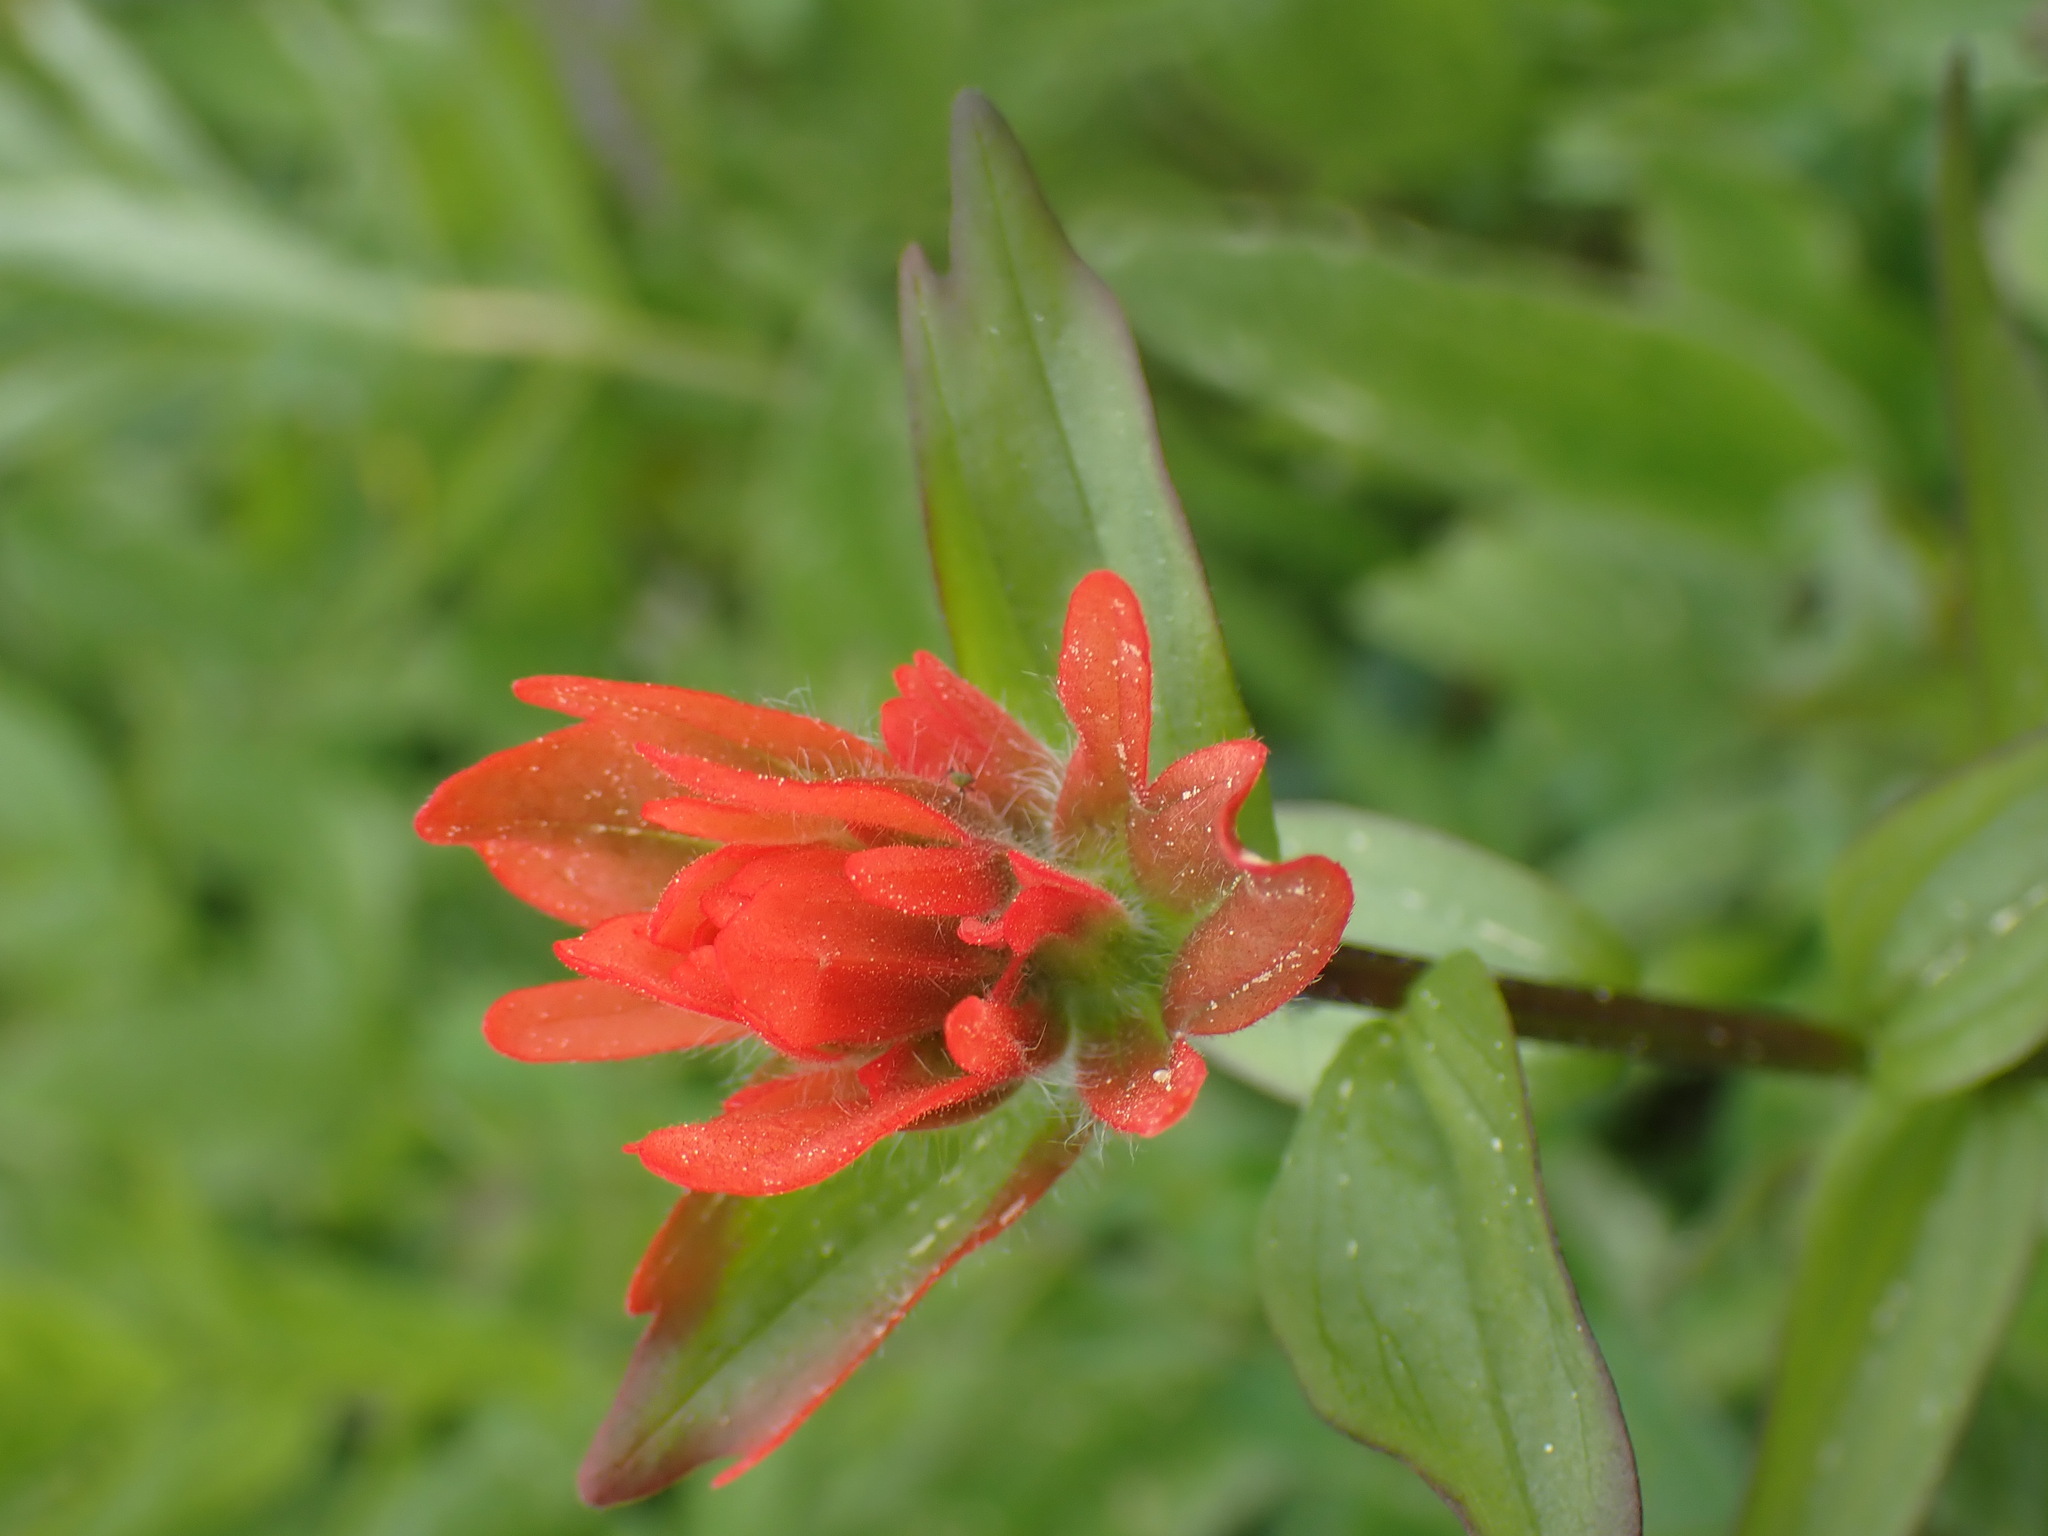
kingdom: Plantae
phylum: Tracheophyta
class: Magnoliopsida
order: Lamiales
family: Orobanchaceae
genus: Castilleja
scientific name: Castilleja hispida
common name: Bristly paintbrush
